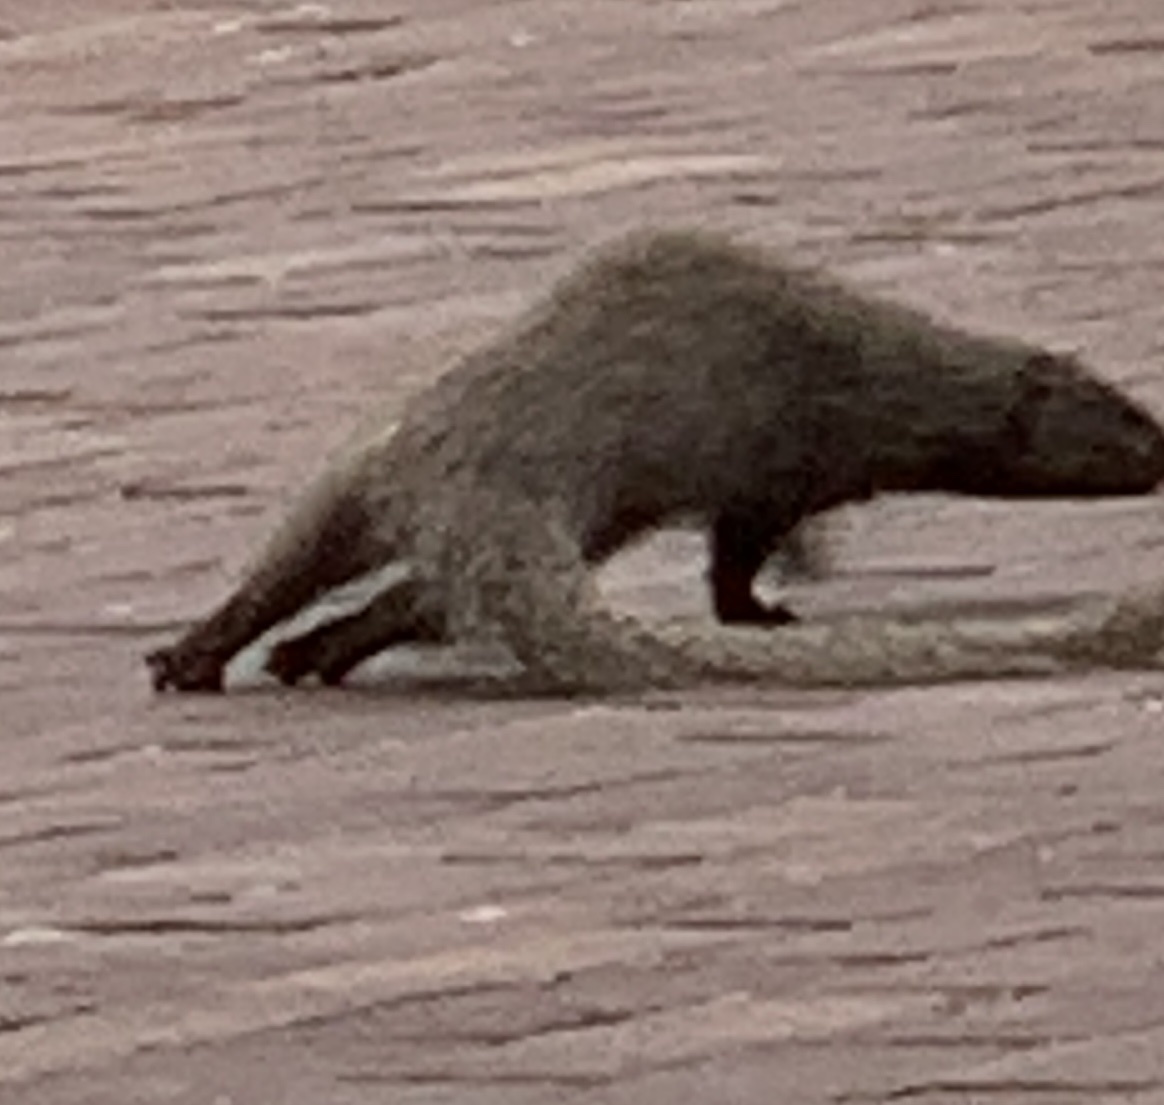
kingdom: Animalia
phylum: Chordata
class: Mammalia
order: Carnivora
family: Herpestidae
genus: Galerella
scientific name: Galerella pulverulenta
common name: Cape gray mongoose
